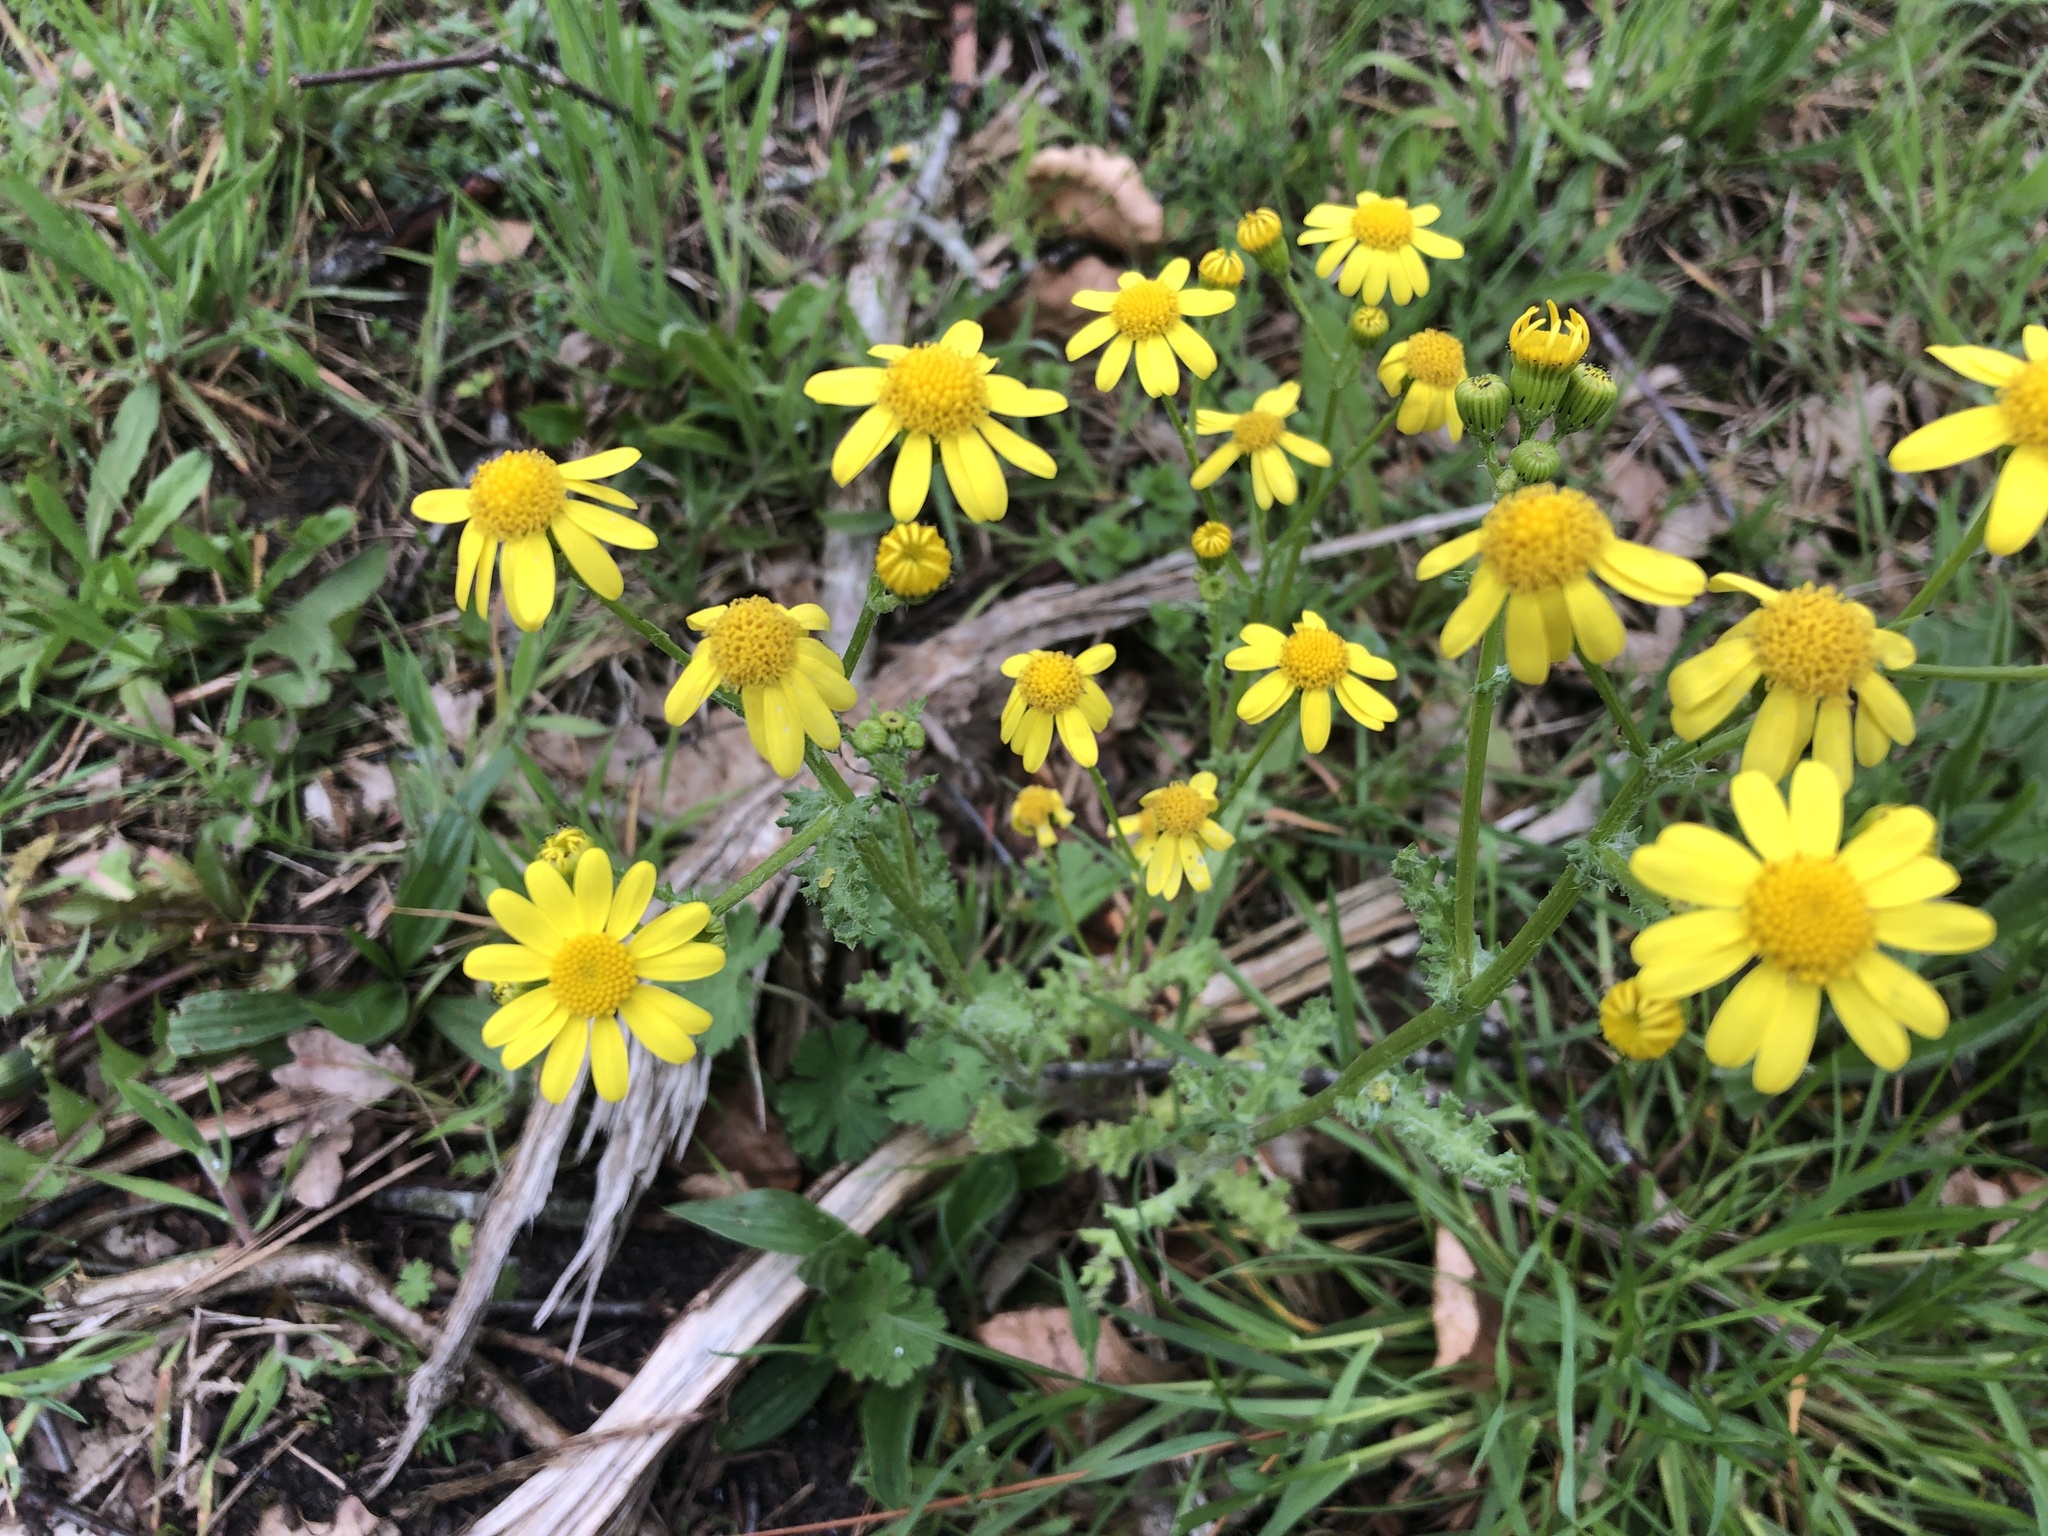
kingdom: Plantae
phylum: Tracheophyta
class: Magnoliopsida
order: Asterales
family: Asteraceae
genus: Senecio
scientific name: Senecio vernalis
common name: Eastern groundsel
